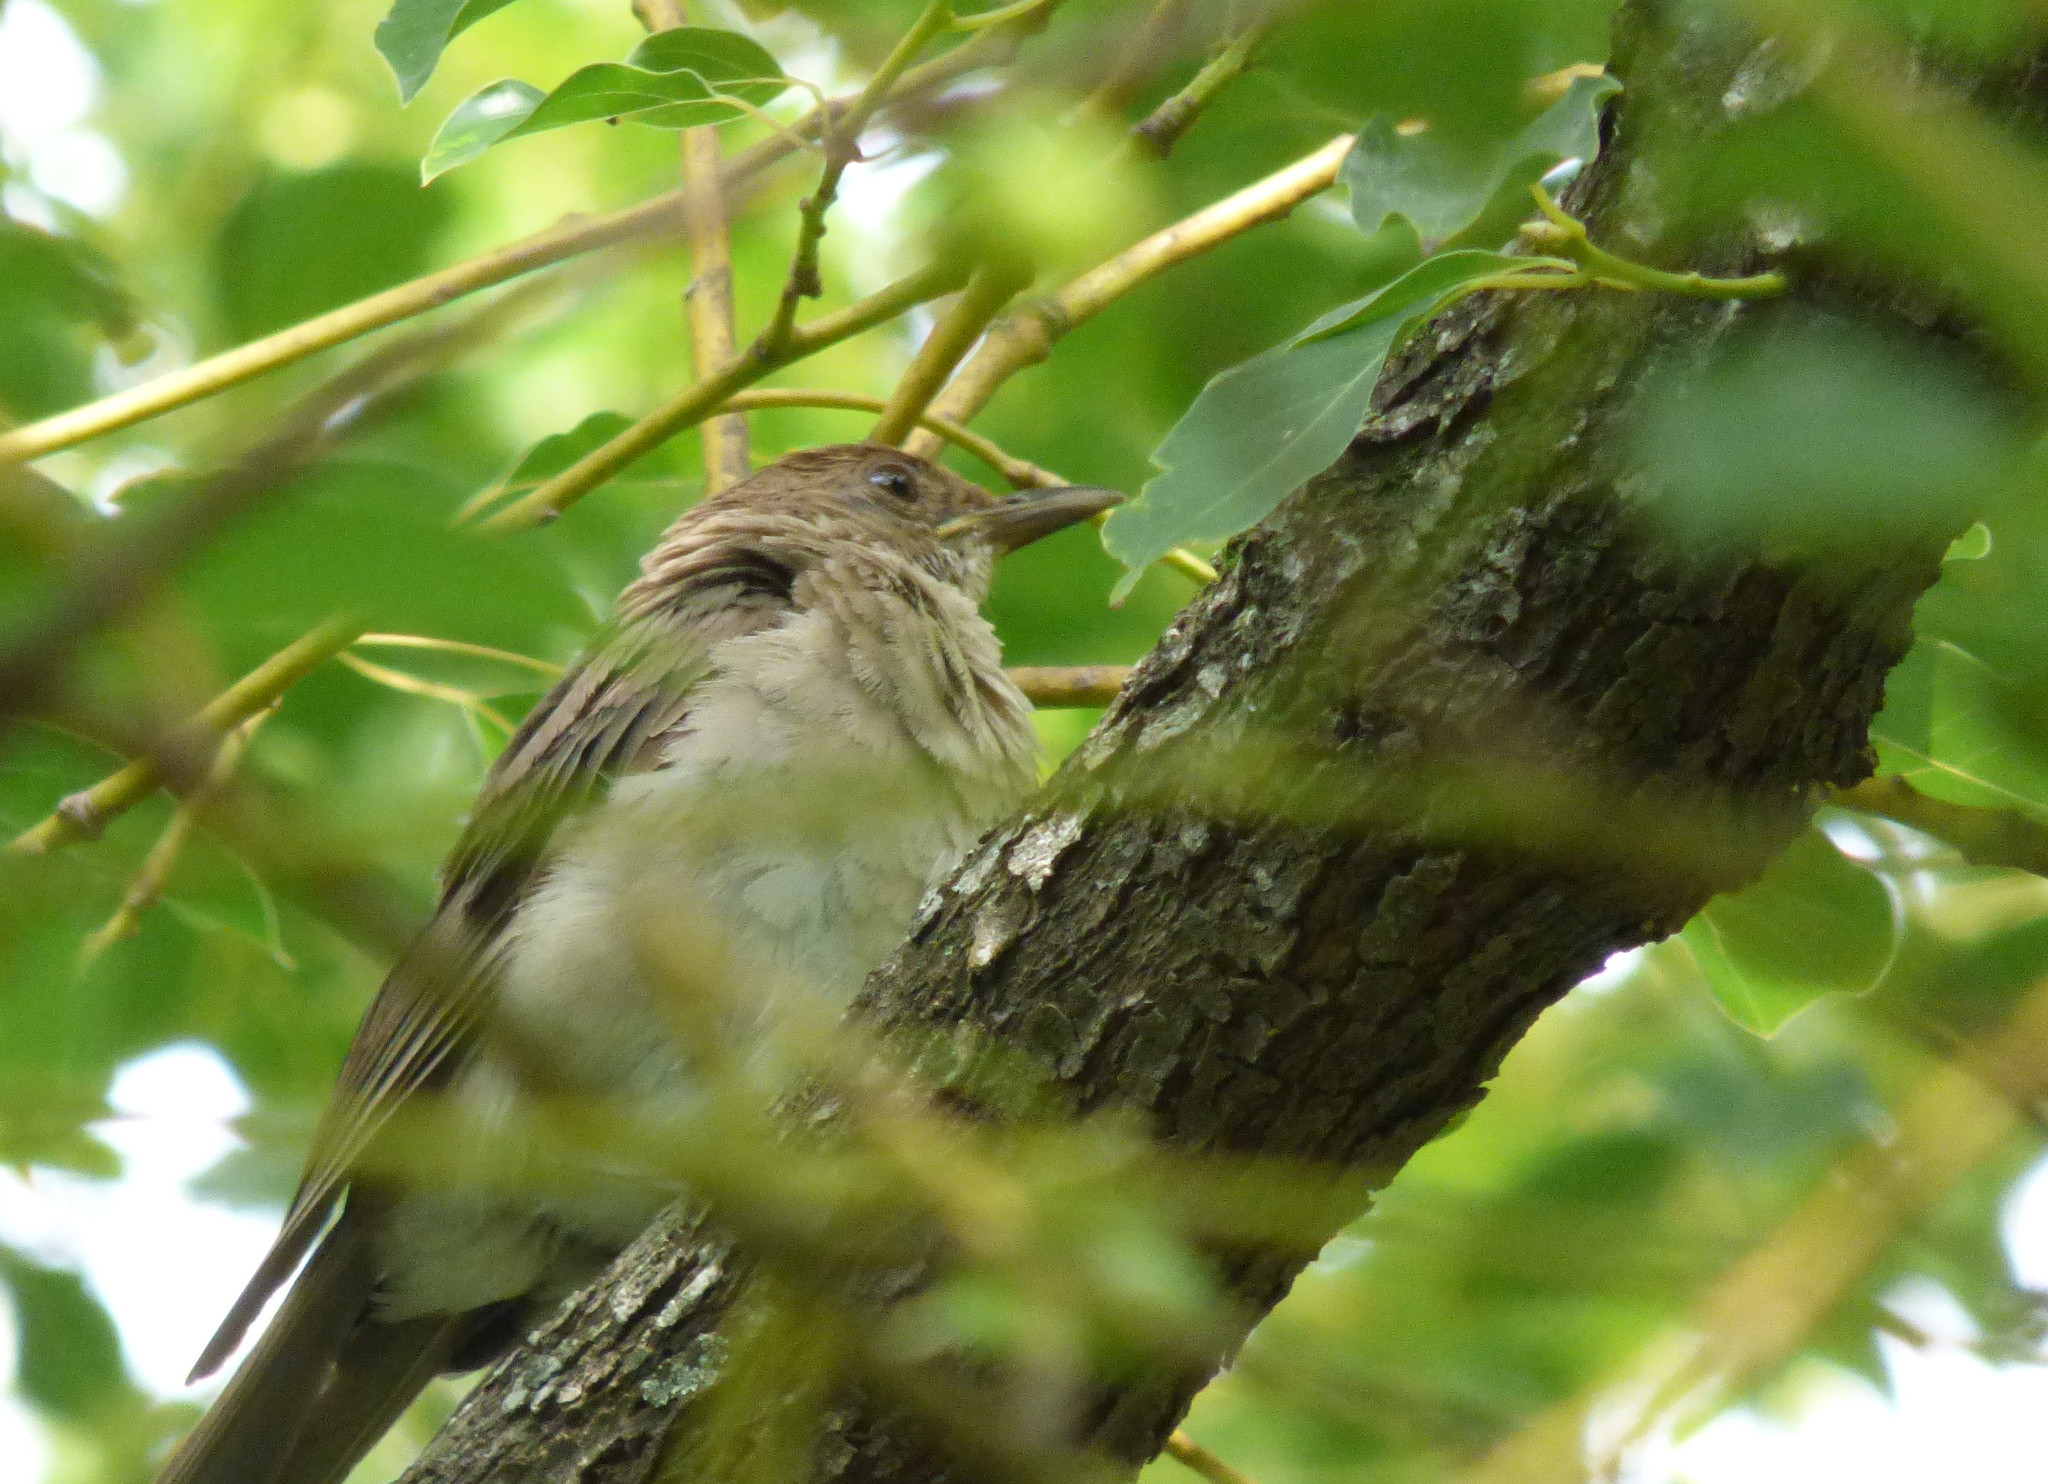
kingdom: Animalia
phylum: Chordata
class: Aves
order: Passeriformes
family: Turdidae
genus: Turdus
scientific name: Turdus amaurochalinus
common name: Creamy-bellied thrush
